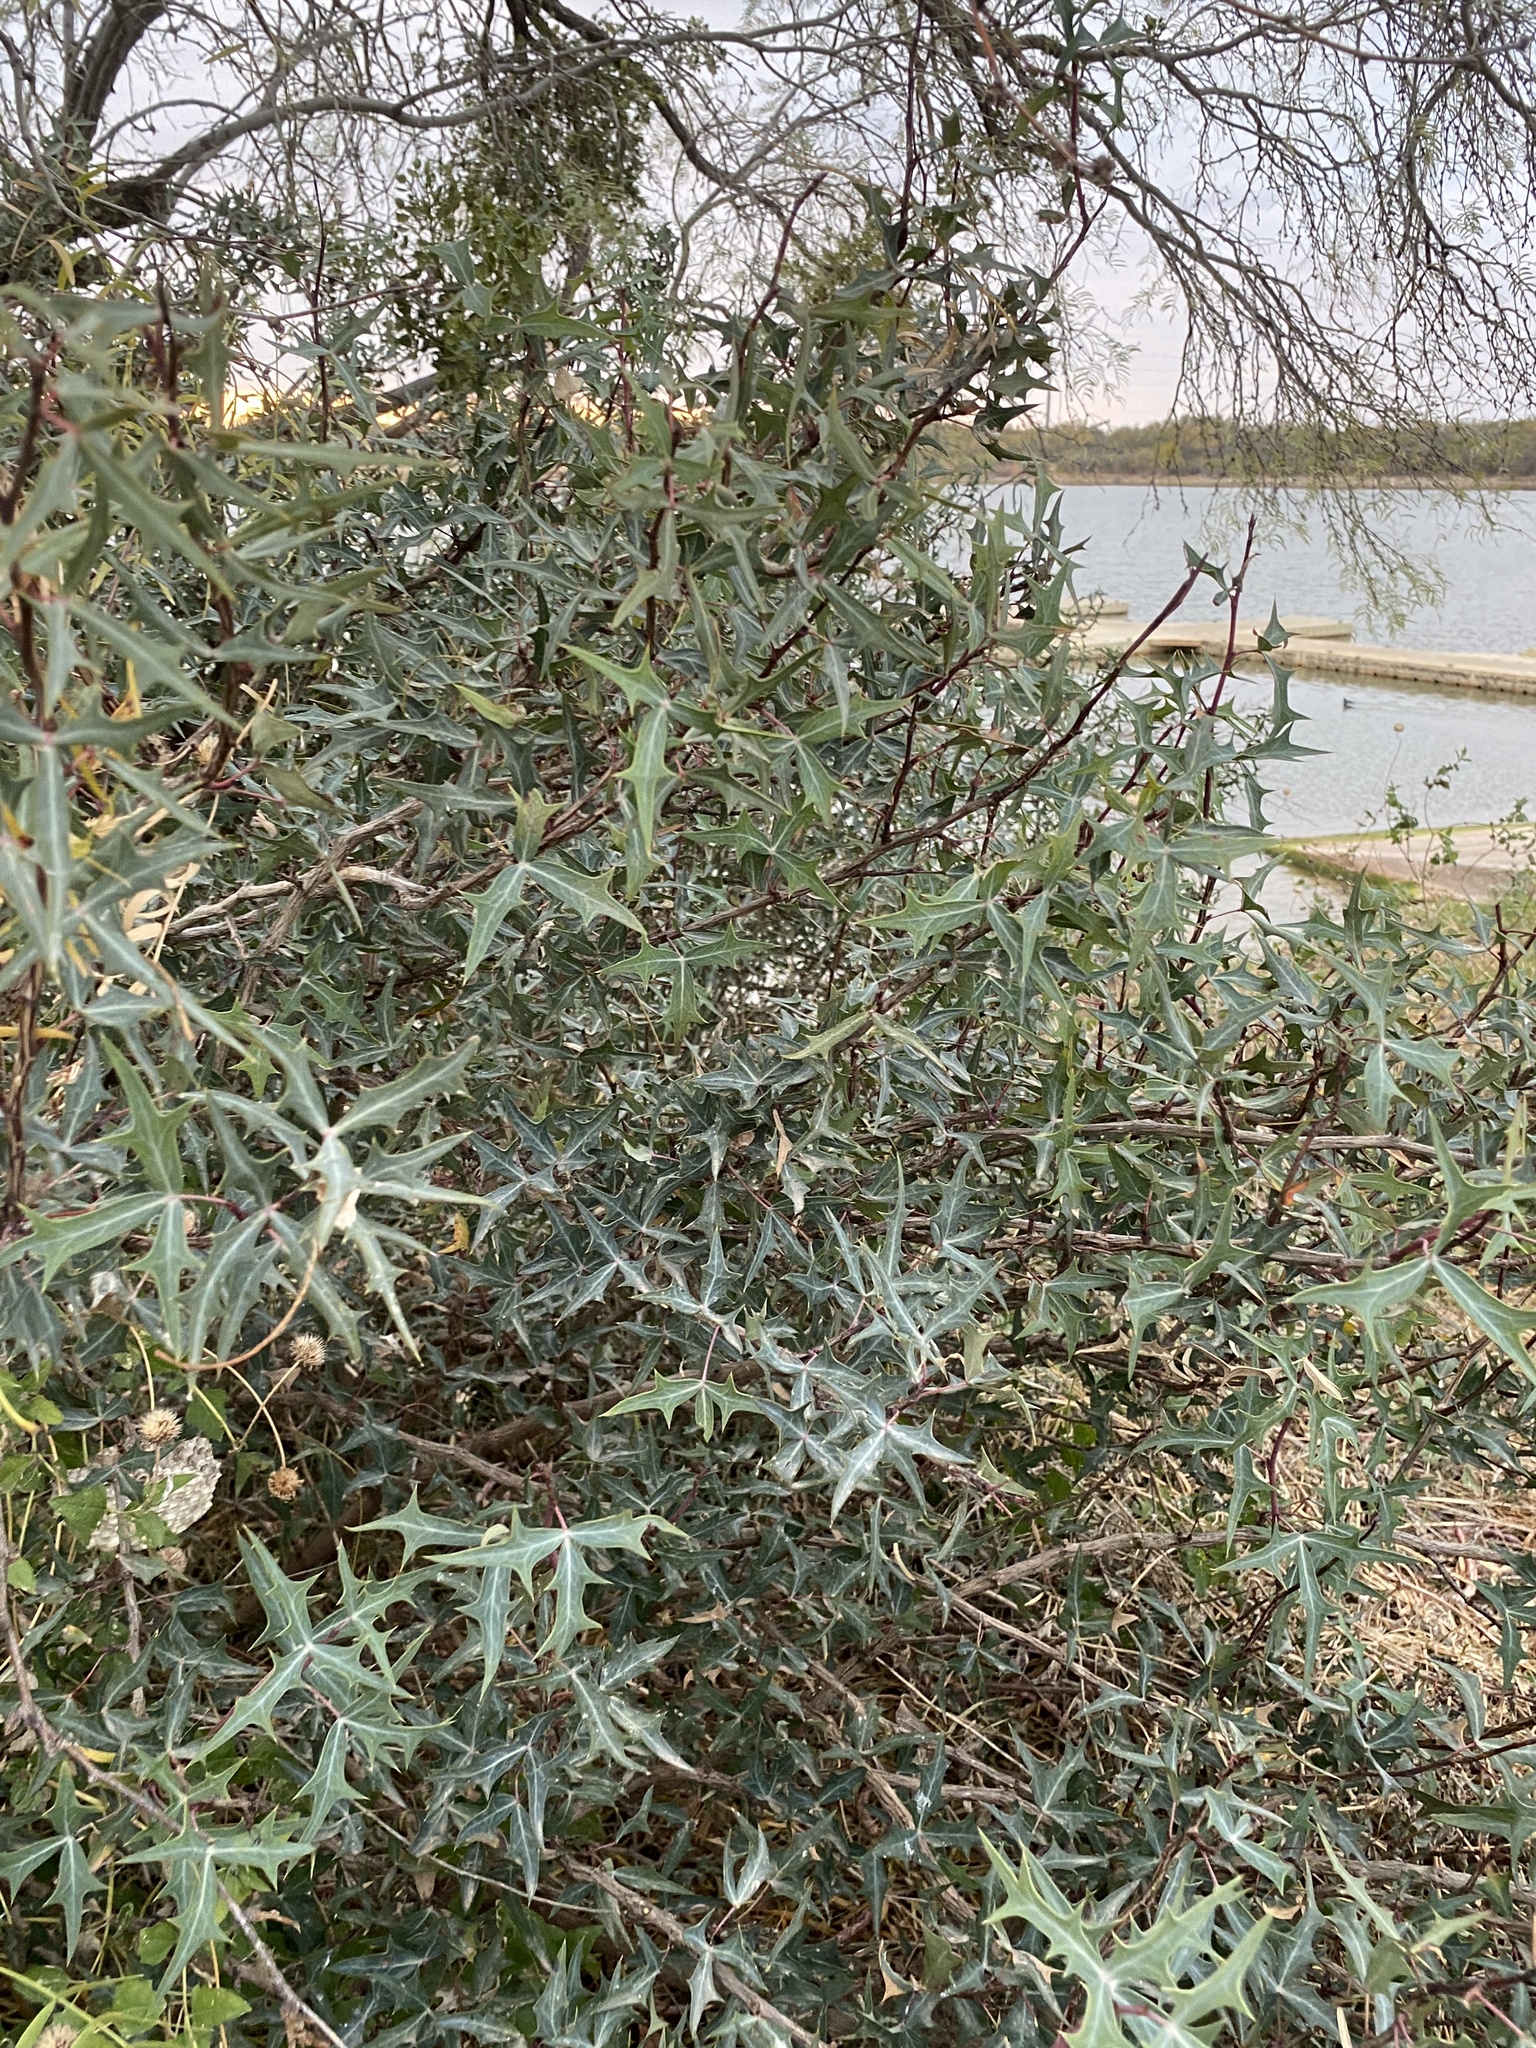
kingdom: Plantae
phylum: Tracheophyta
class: Magnoliopsida
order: Ranunculales
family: Berberidaceae
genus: Alloberberis
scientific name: Alloberberis trifoliolata
